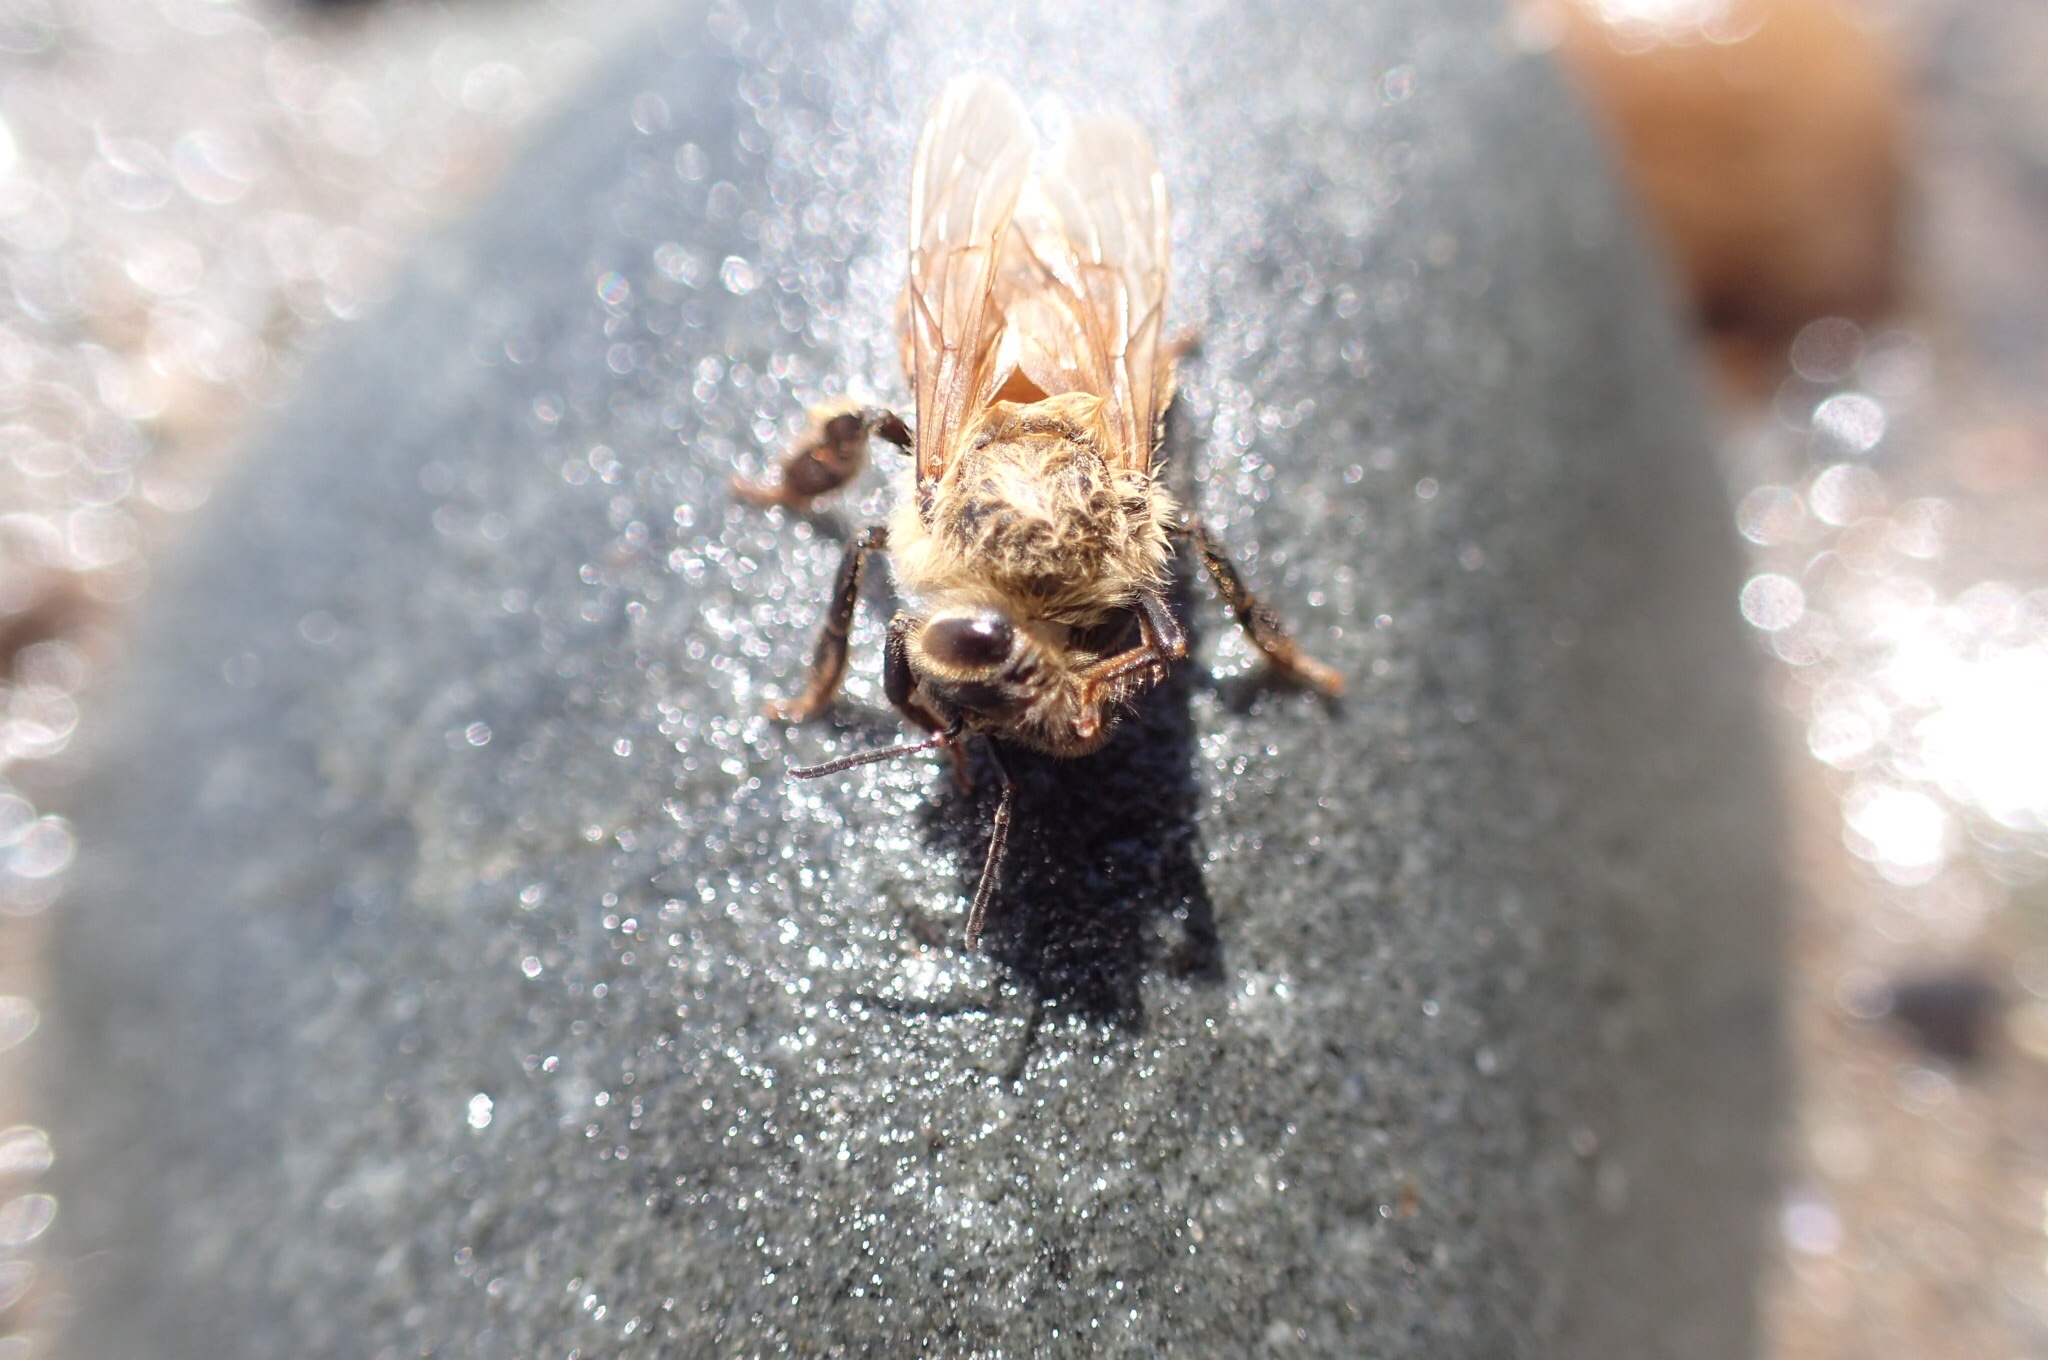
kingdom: Animalia
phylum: Arthropoda
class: Insecta
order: Hymenoptera
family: Apidae
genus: Apis
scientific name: Apis mellifera
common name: Honey bee
